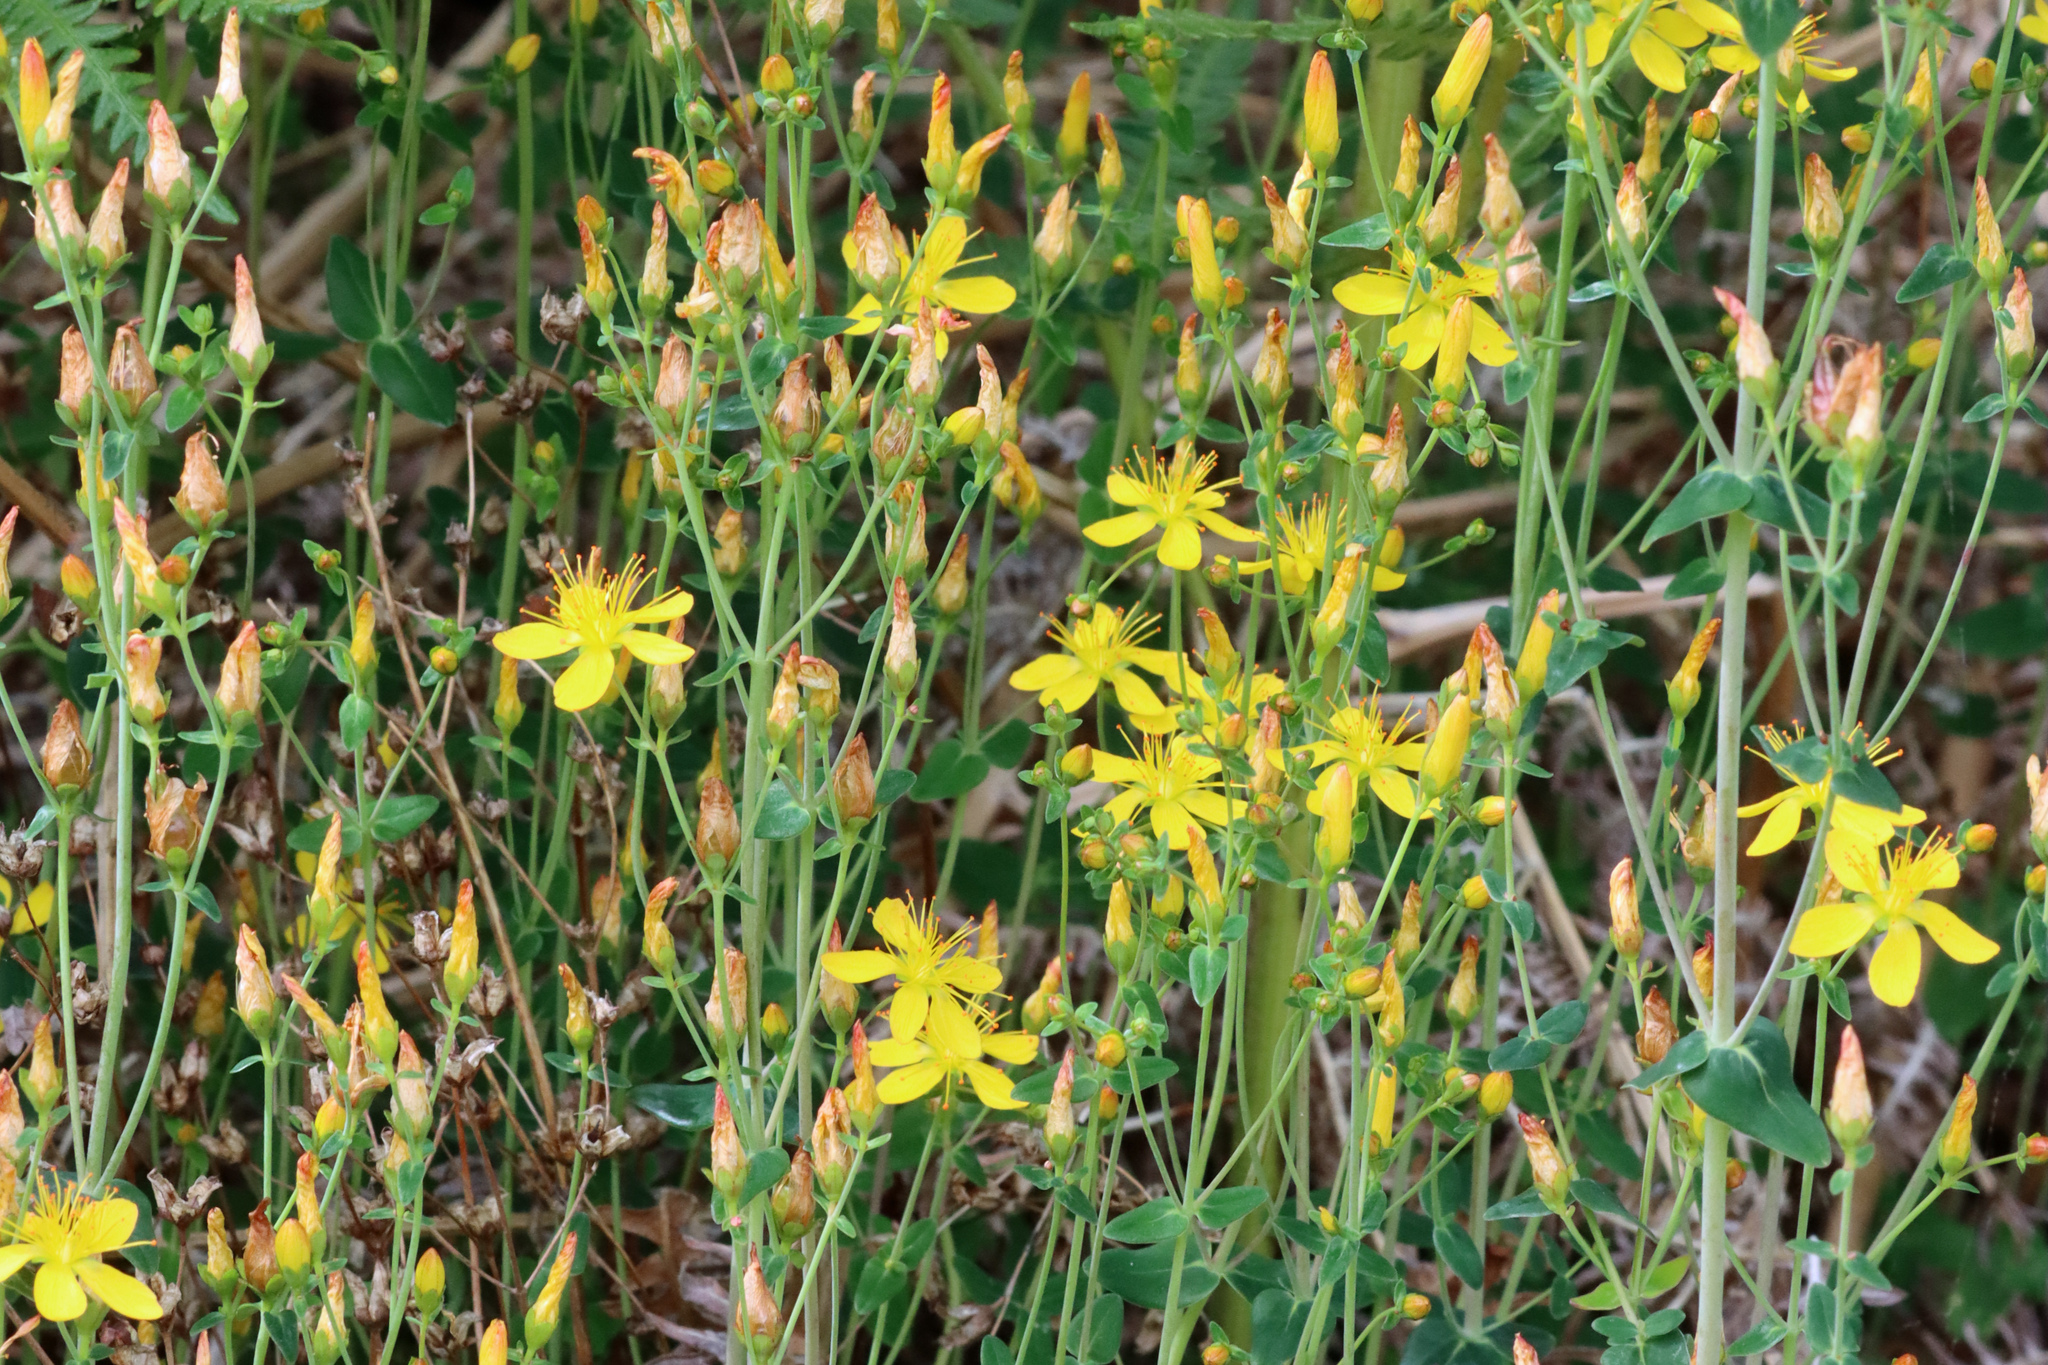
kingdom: Plantae
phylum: Tracheophyta
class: Magnoliopsida
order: Malpighiales
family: Hypericaceae
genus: Hypericum
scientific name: Hypericum pulchrum
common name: Slender st. john's-wort
